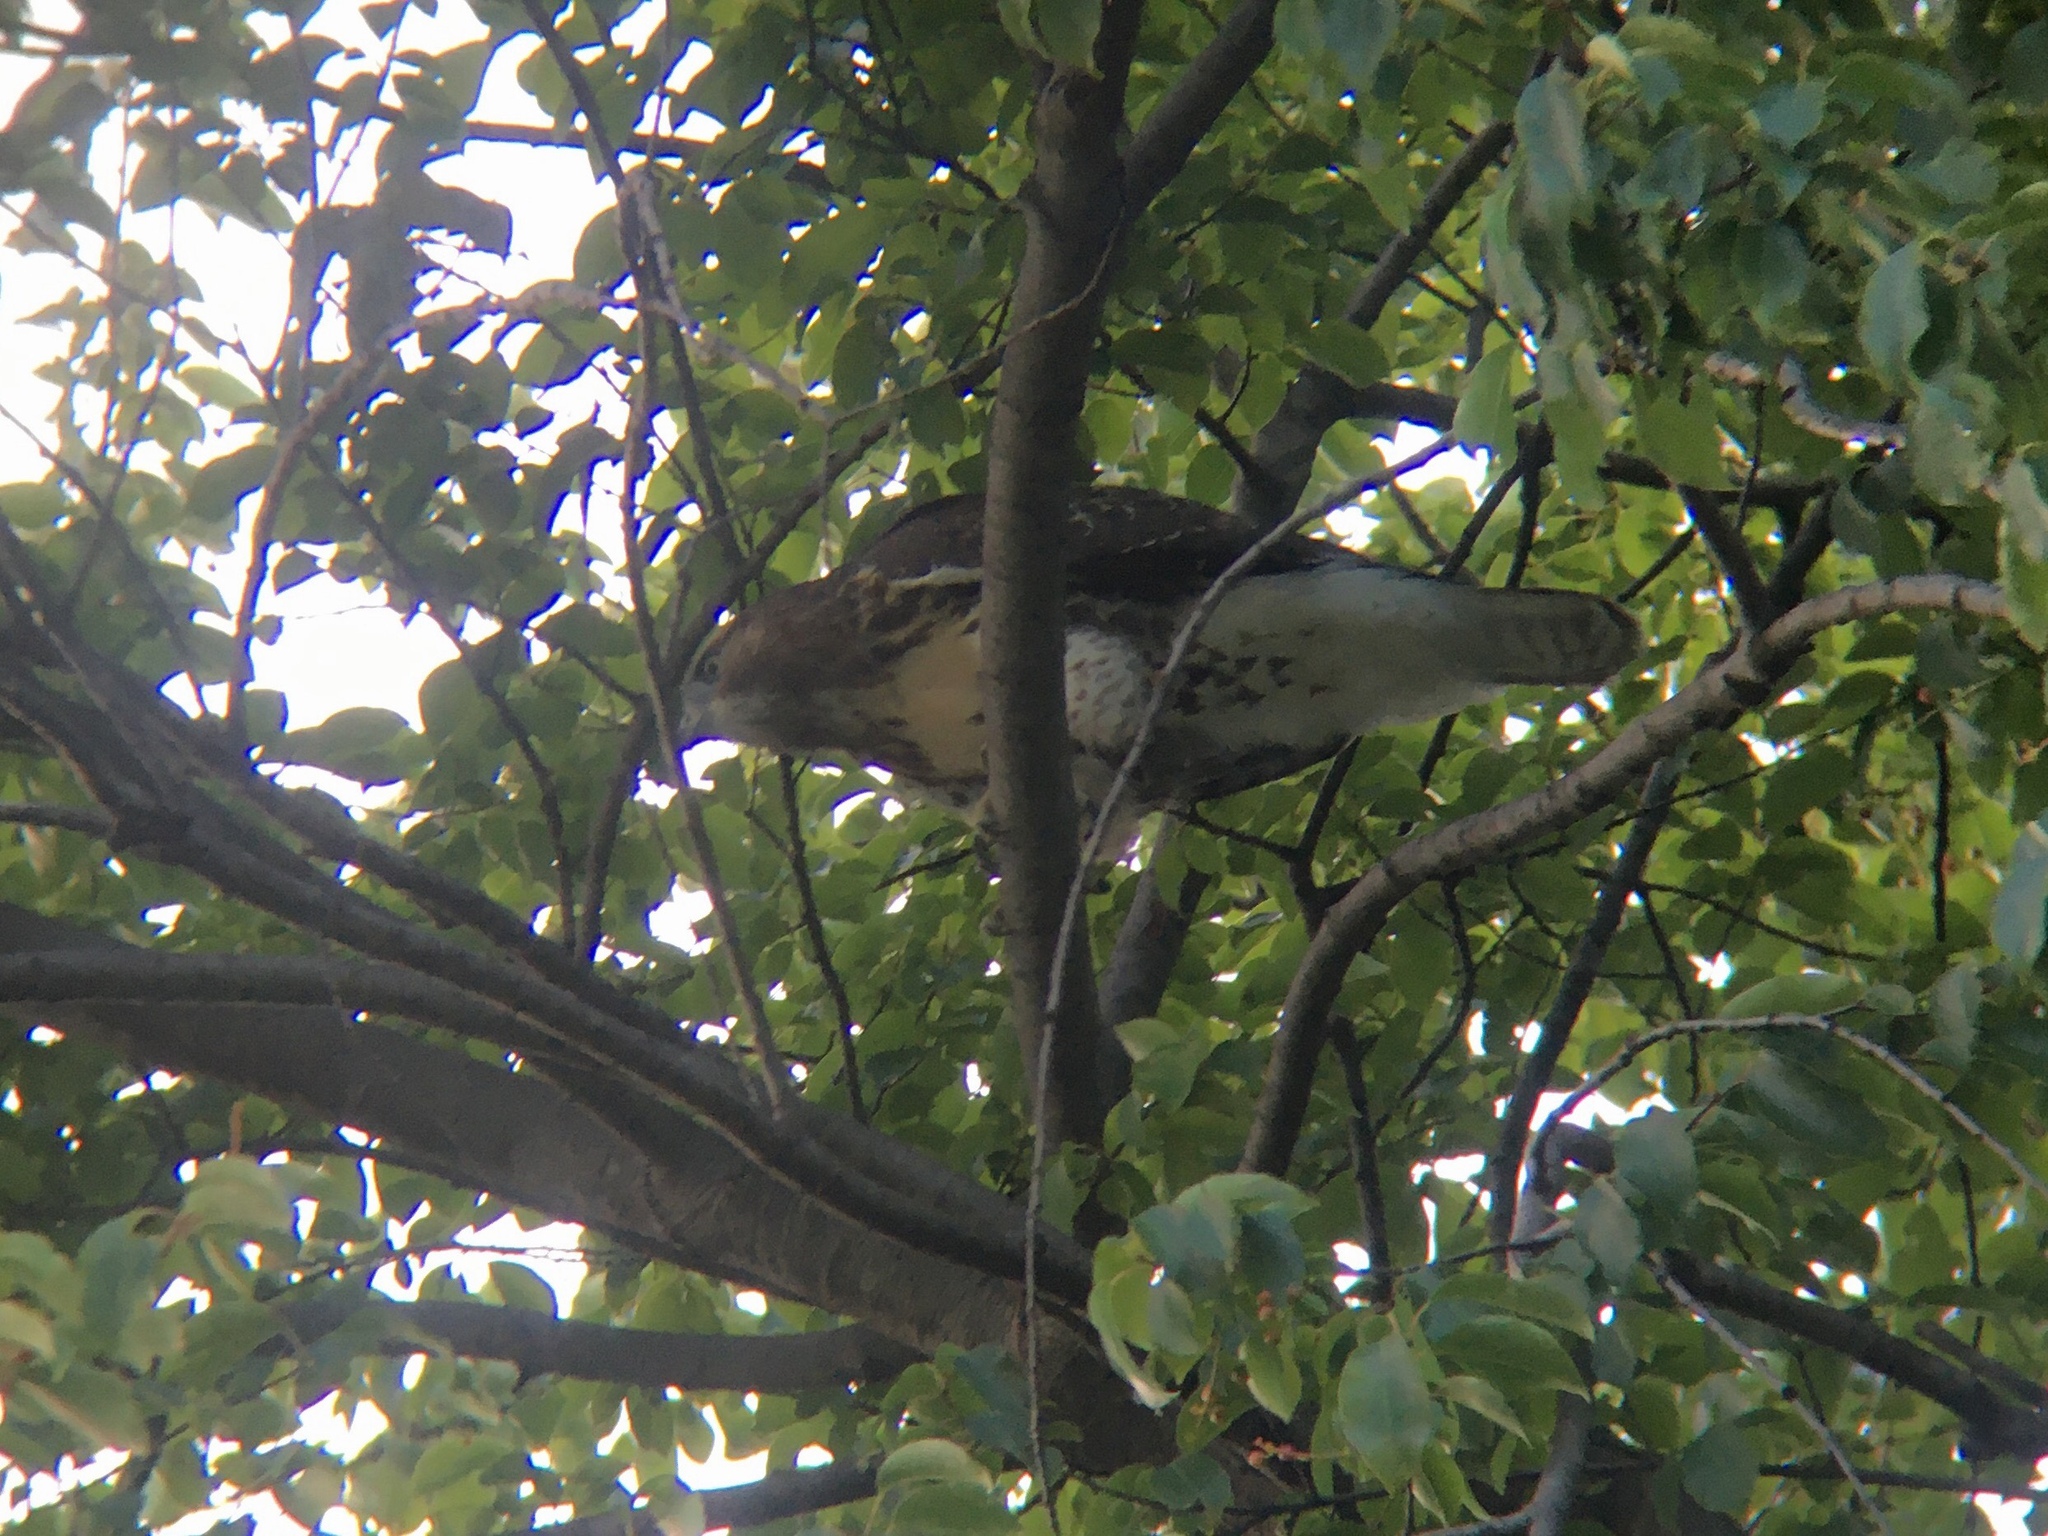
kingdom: Animalia
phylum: Chordata
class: Aves
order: Accipitriformes
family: Accipitridae
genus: Buteo
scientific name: Buteo jamaicensis
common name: Red-tailed hawk
